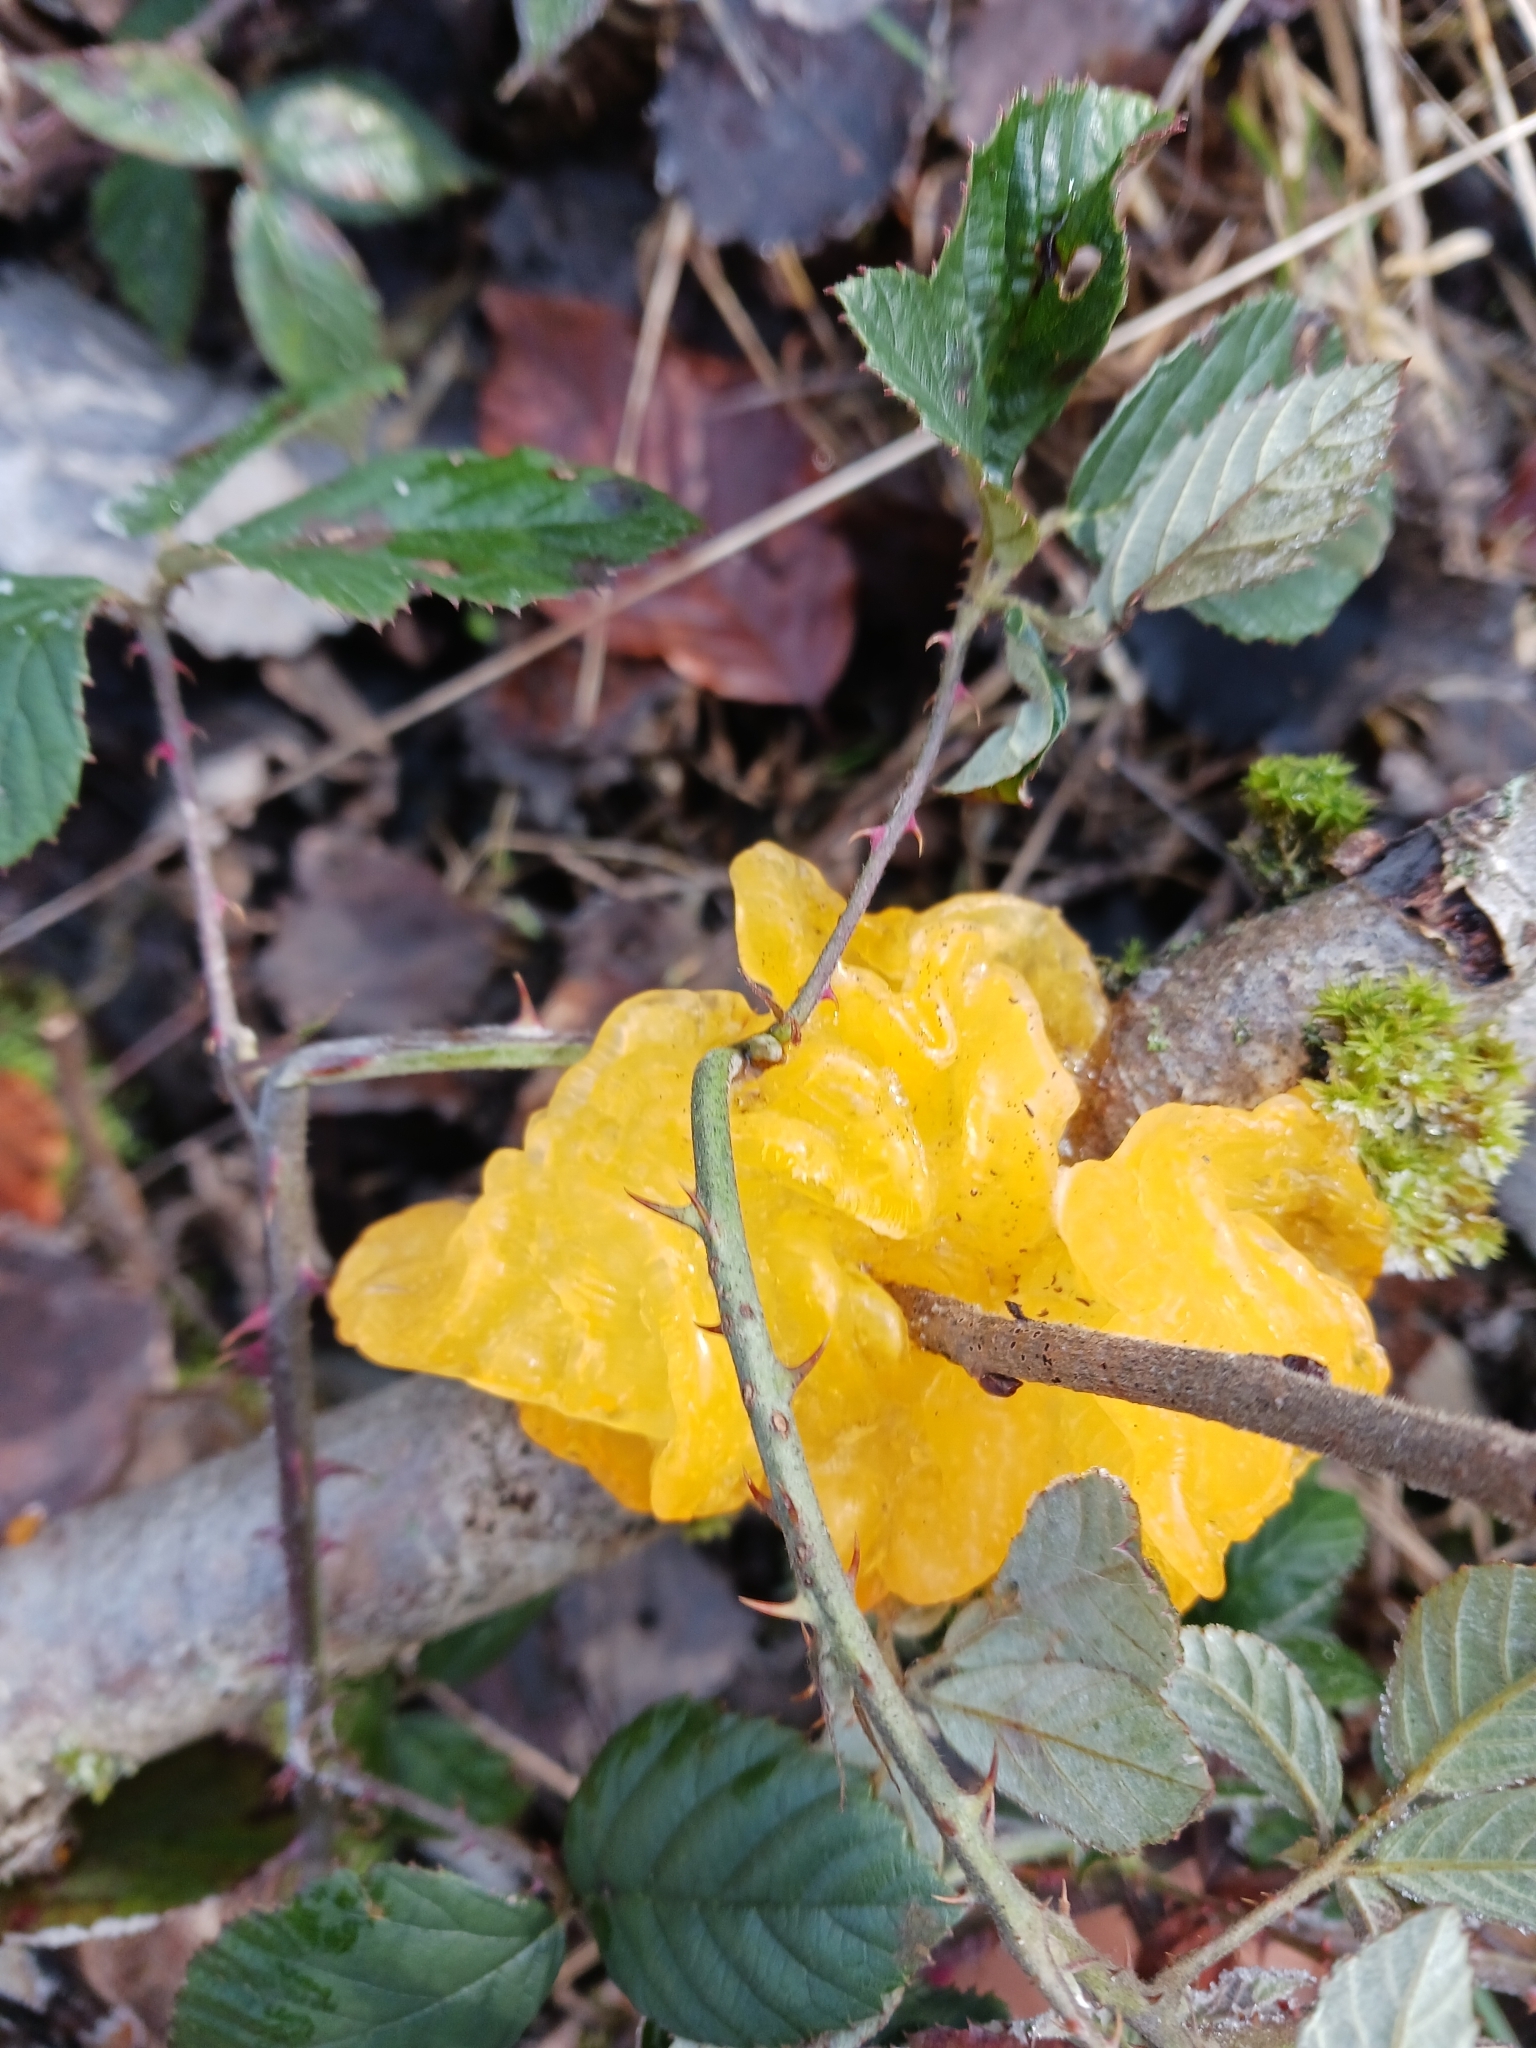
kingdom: Fungi
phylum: Basidiomycota
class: Tremellomycetes
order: Tremellales
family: Tremellaceae
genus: Tremella
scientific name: Tremella mesenterica
